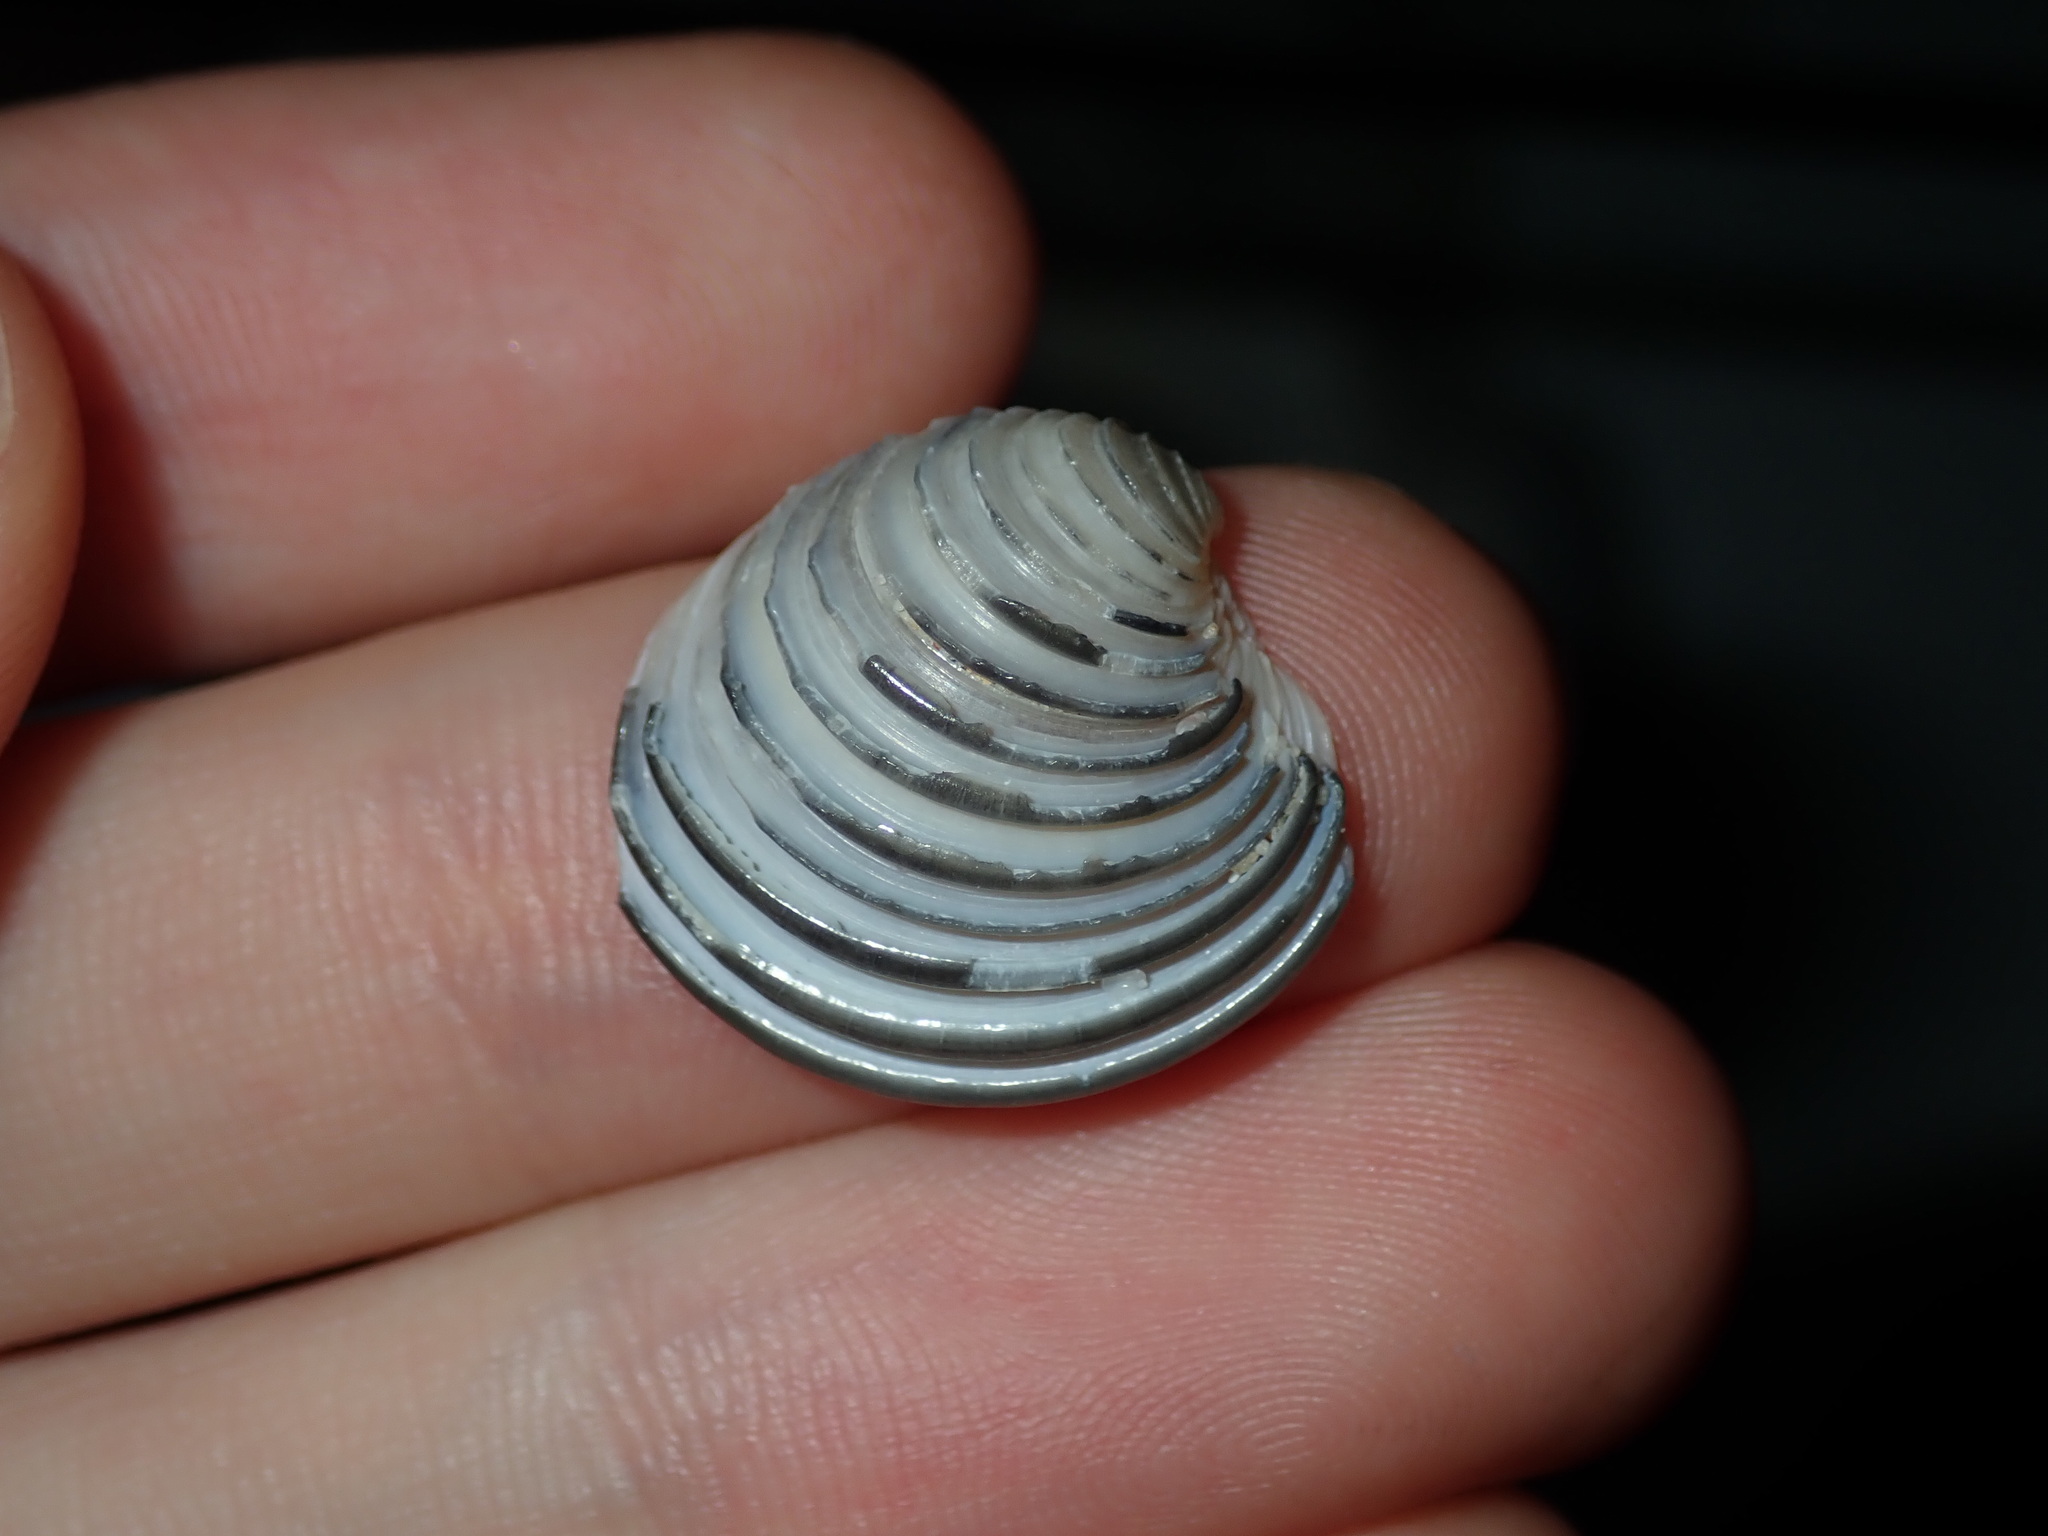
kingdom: Animalia
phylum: Mollusca
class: Bivalvia
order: Venerida
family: Veneridae
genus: Placamen
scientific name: Placamen placidum
